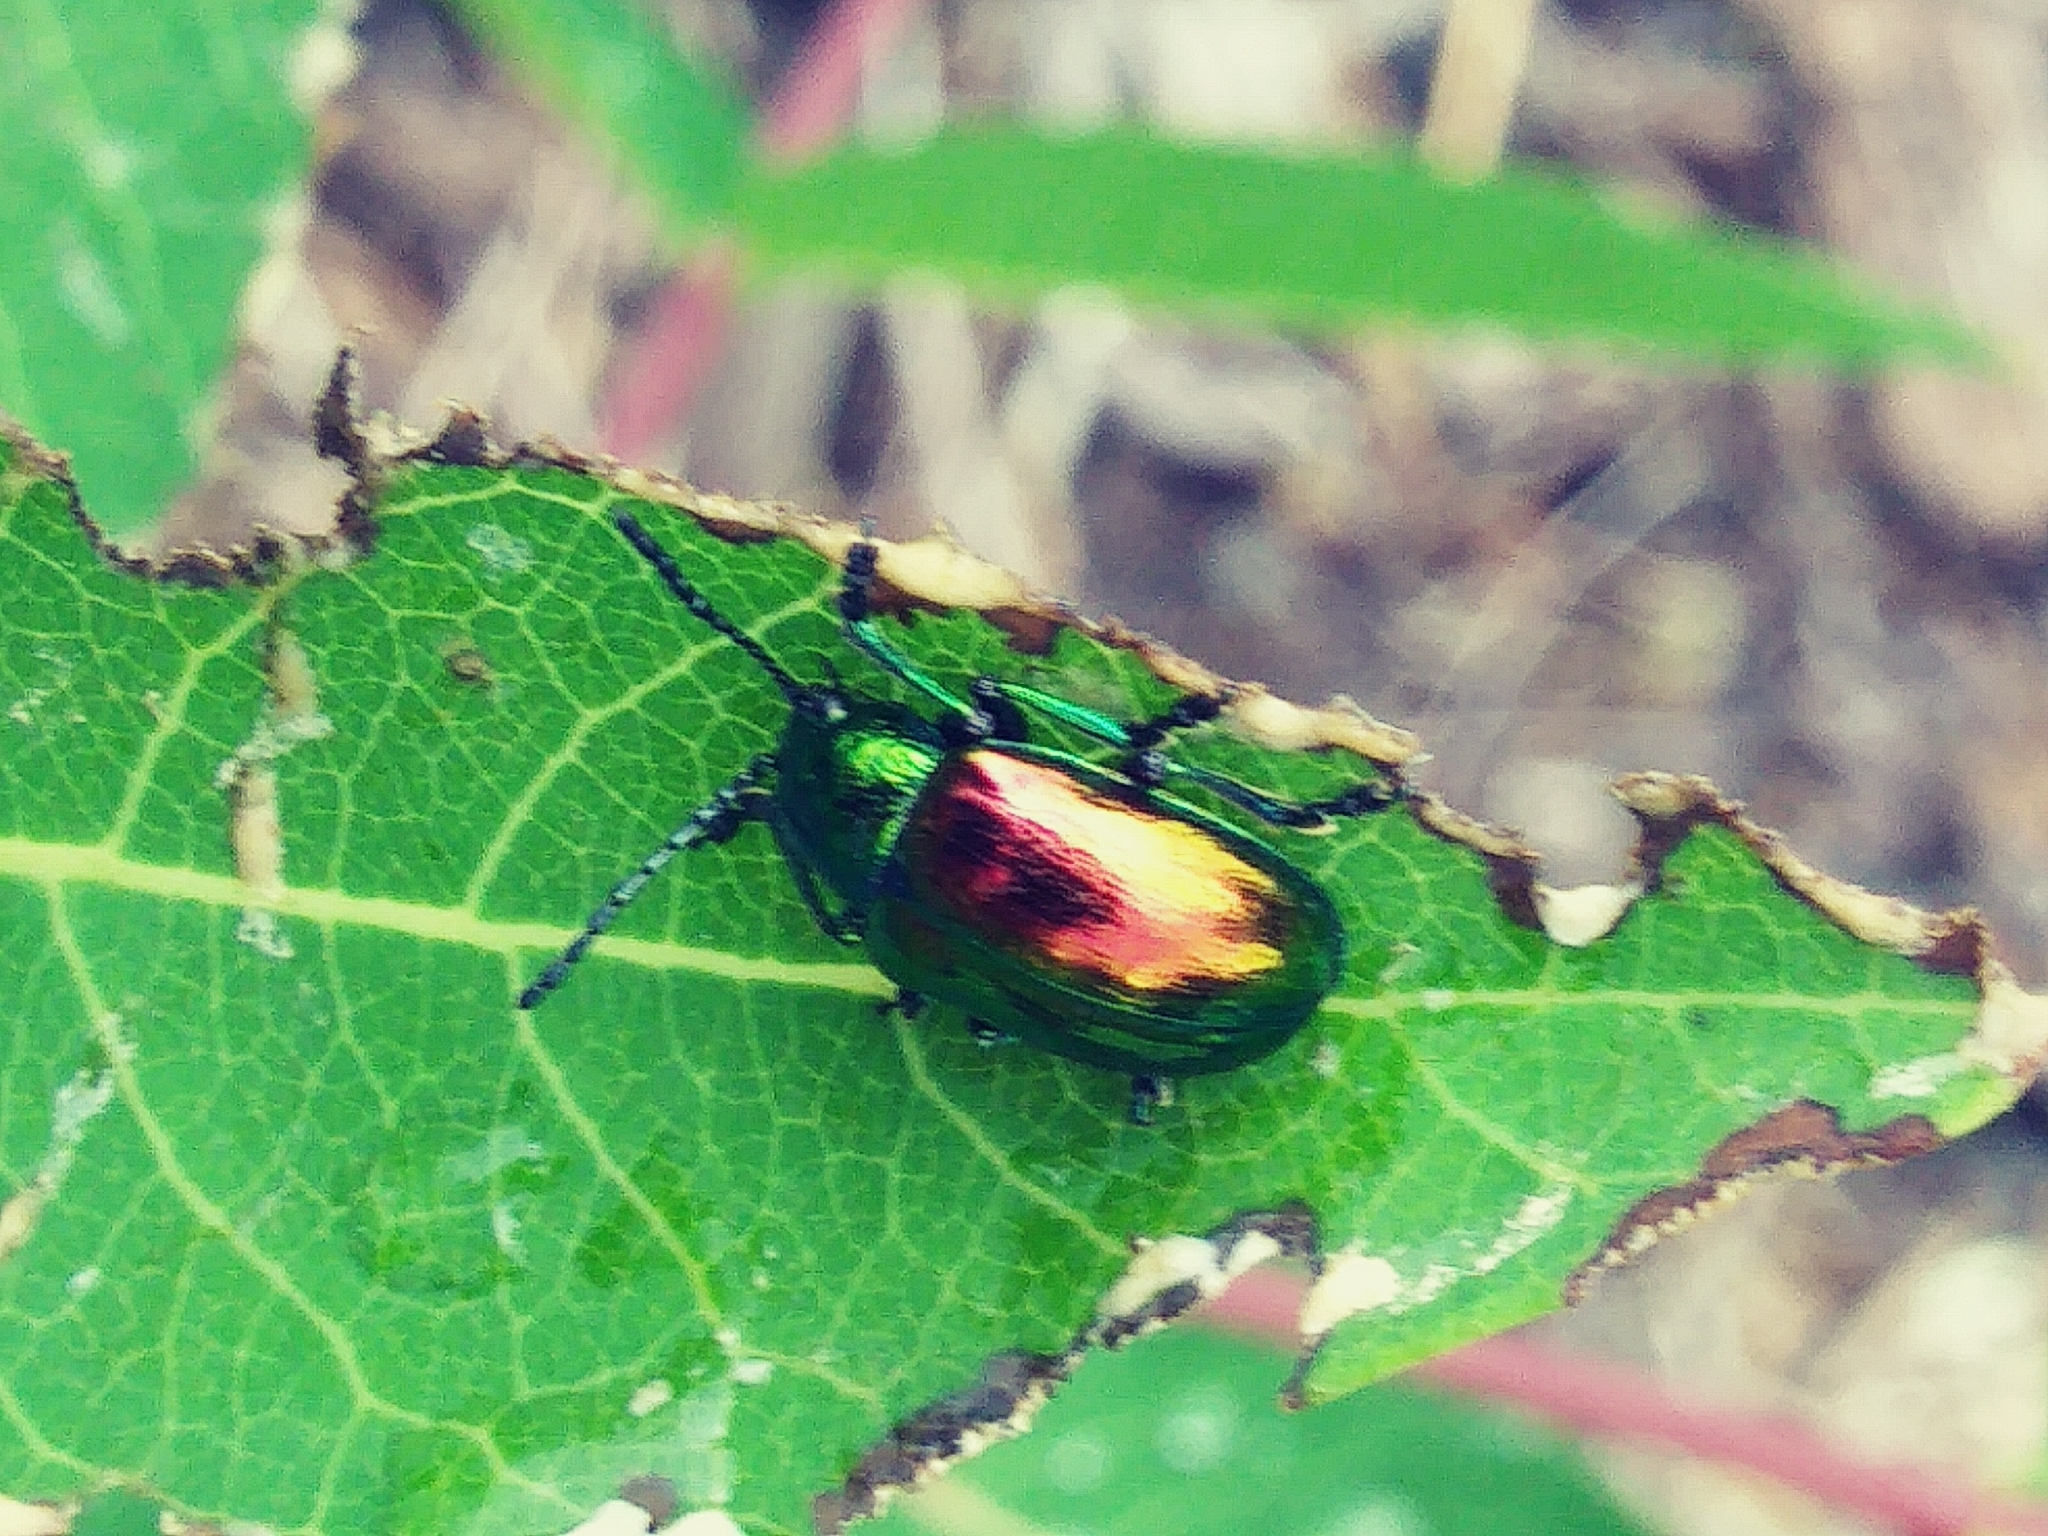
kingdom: Animalia
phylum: Arthropoda
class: Insecta
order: Coleoptera
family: Chrysomelidae
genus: Chrysochus
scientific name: Chrysochus auratus
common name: Dogbane leaf beetle
